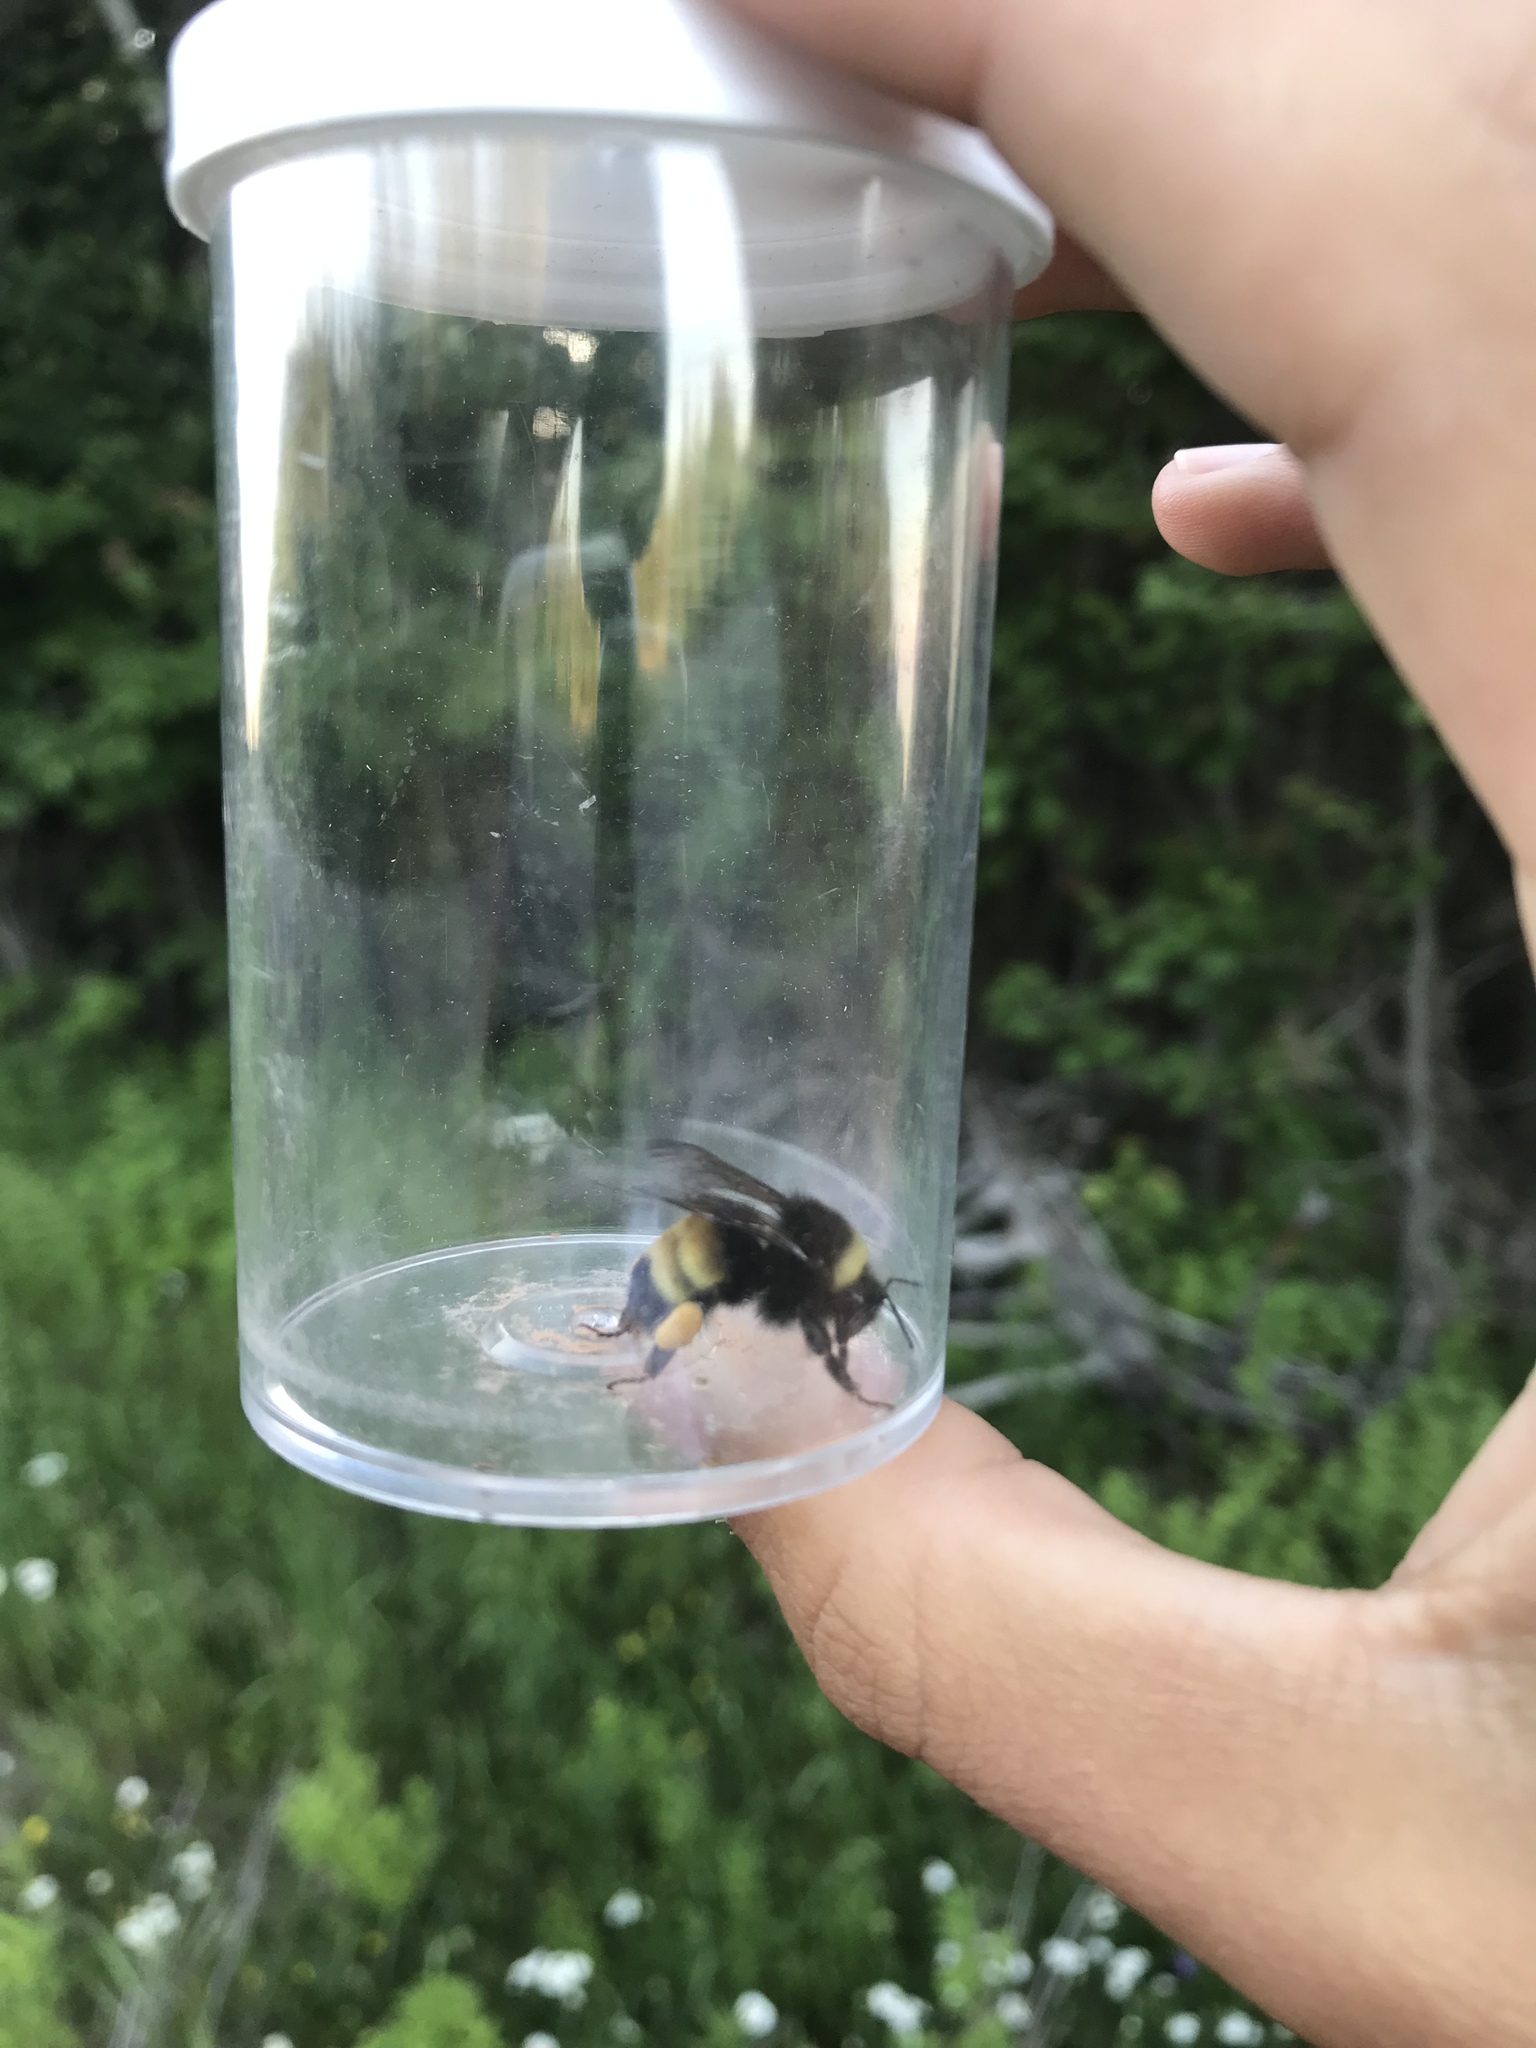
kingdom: Animalia
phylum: Arthropoda
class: Insecta
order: Hymenoptera
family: Apidae
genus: Bombus
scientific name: Bombus terricola
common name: Yellow-banded bumble bee
